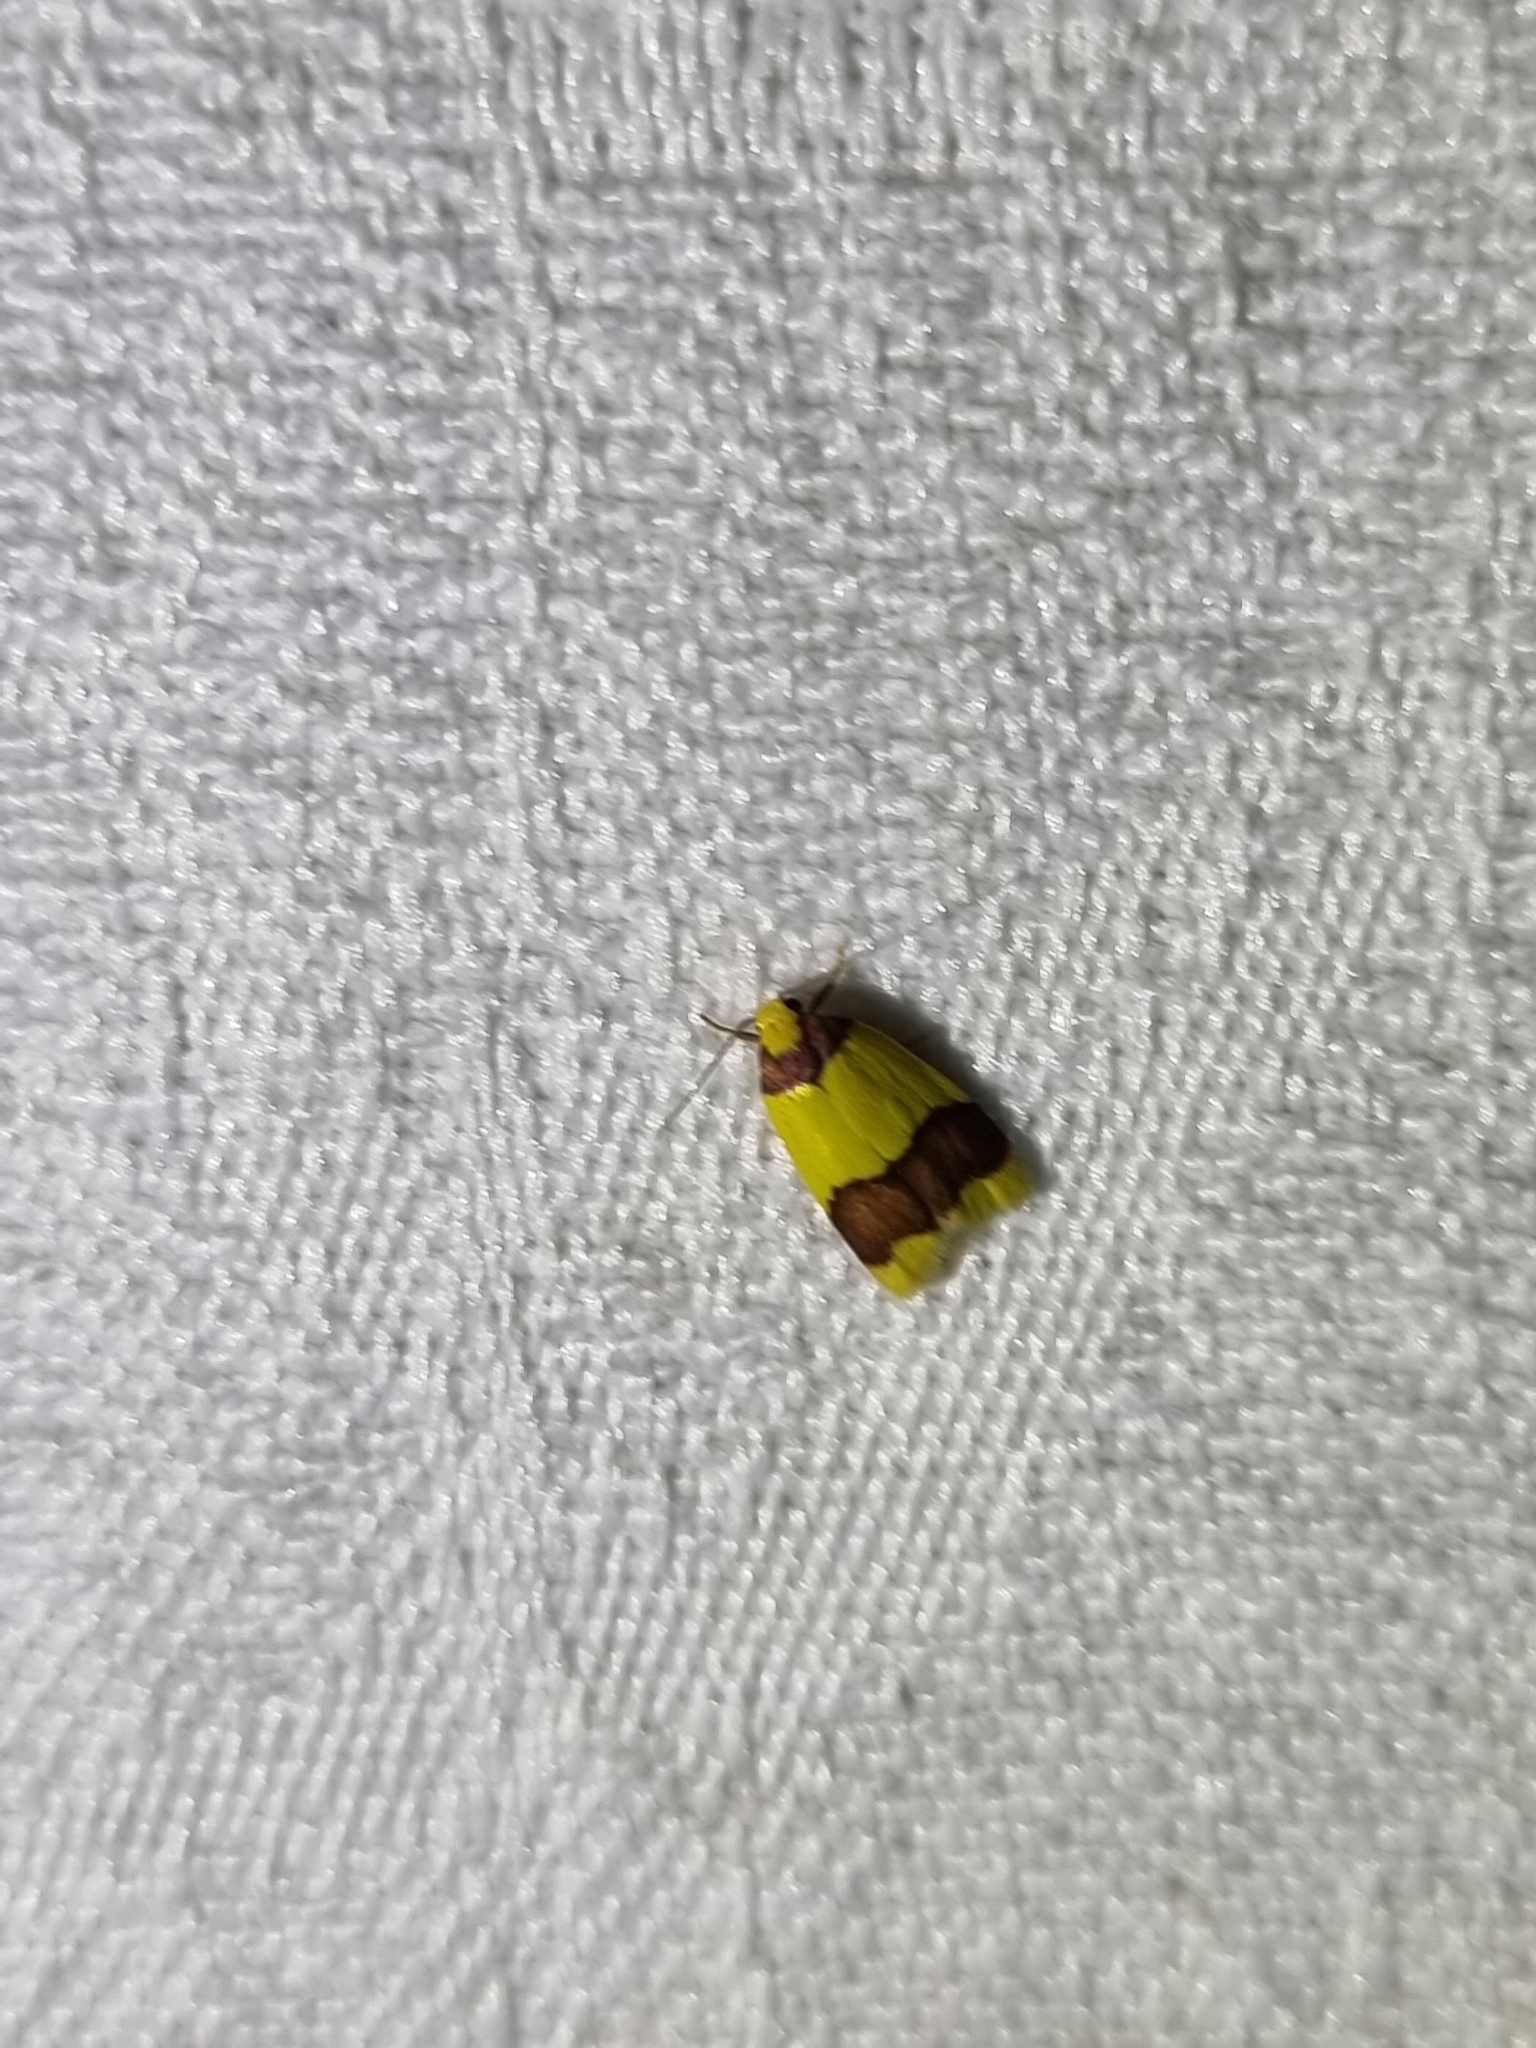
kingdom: Animalia
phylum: Arthropoda
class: Insecta
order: Lepidoptera
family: Erebidae
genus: Heterallactis
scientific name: Heterallactis microchrysa
